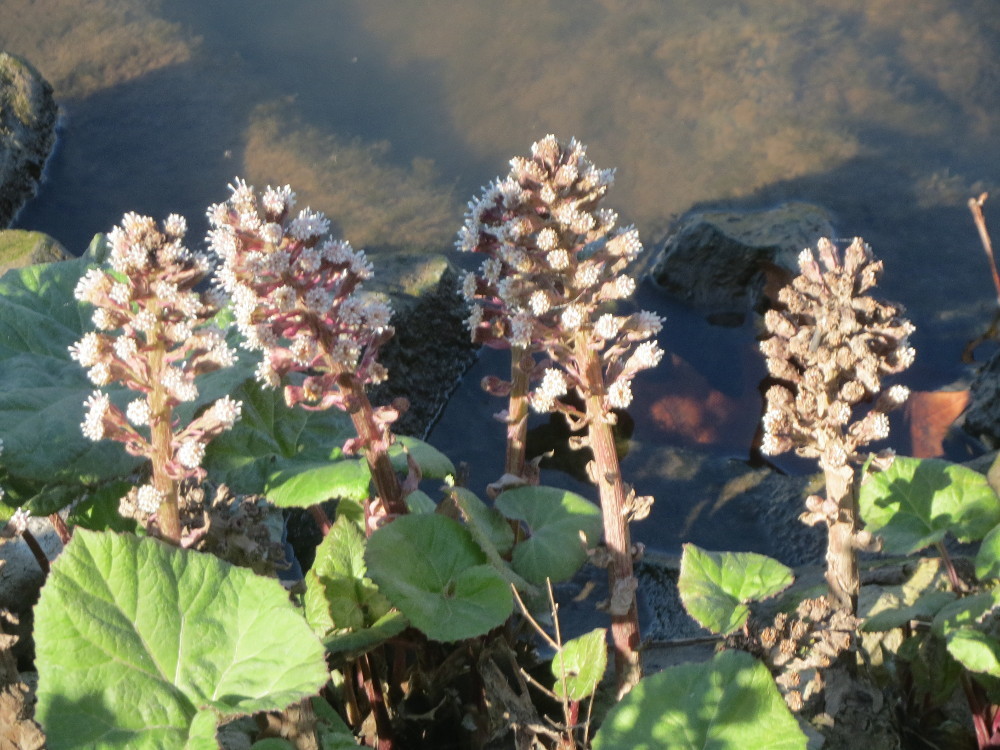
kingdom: Plantae
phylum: Tracheophyta
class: Magnoliopsida
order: Asterales
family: Asteraceae
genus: Petasites
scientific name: Petasites hybridus
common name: Butterbur
